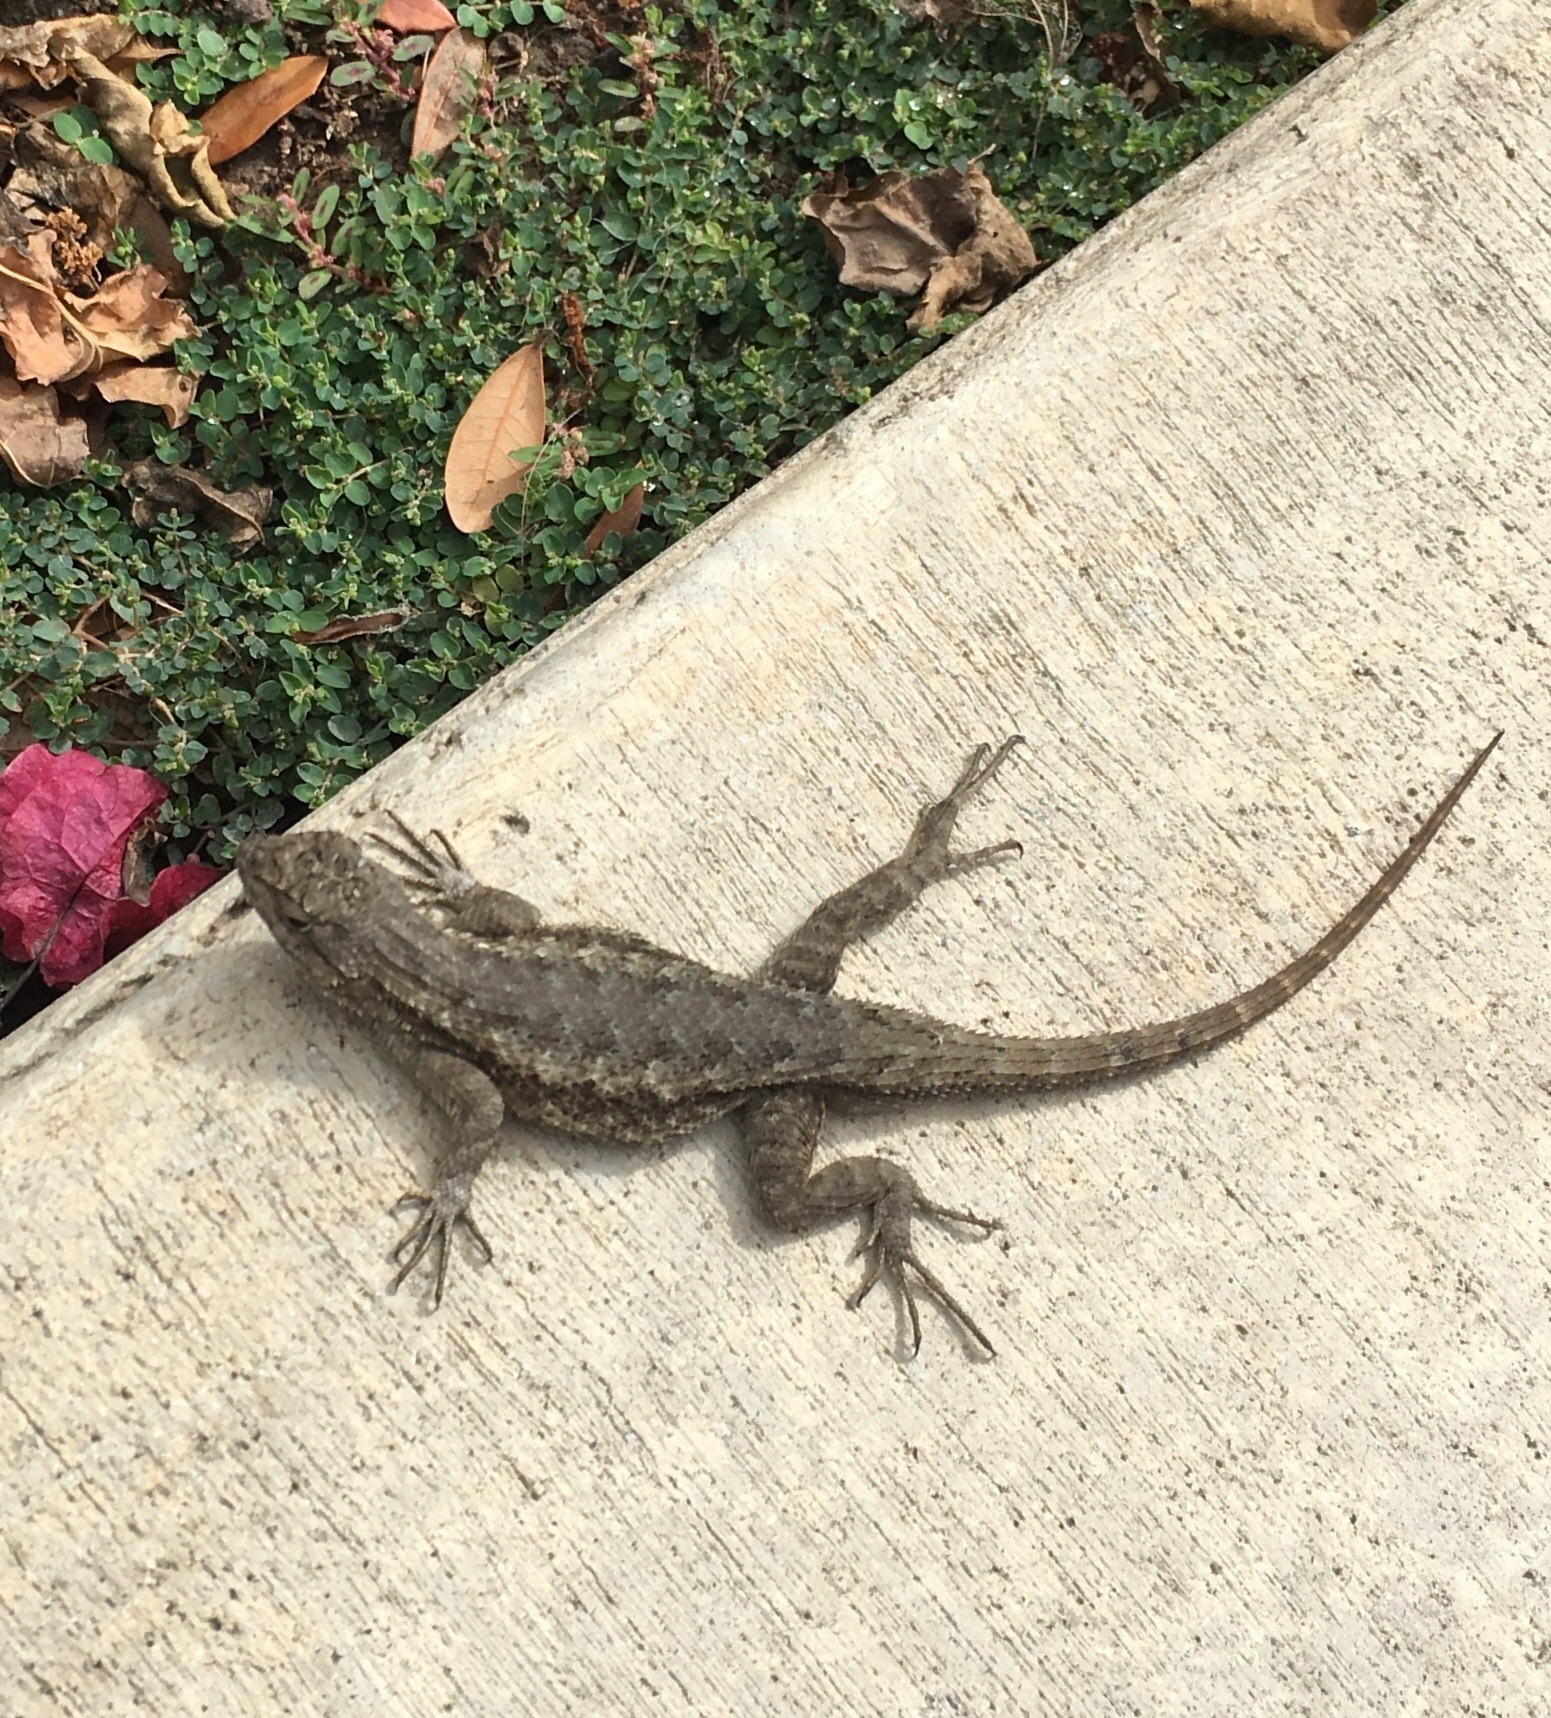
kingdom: Animalia
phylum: Chordata
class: Squamata
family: Phrynosomatidae
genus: Sceloporus
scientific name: Sceloporus occidentalis
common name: Western fence lizard
